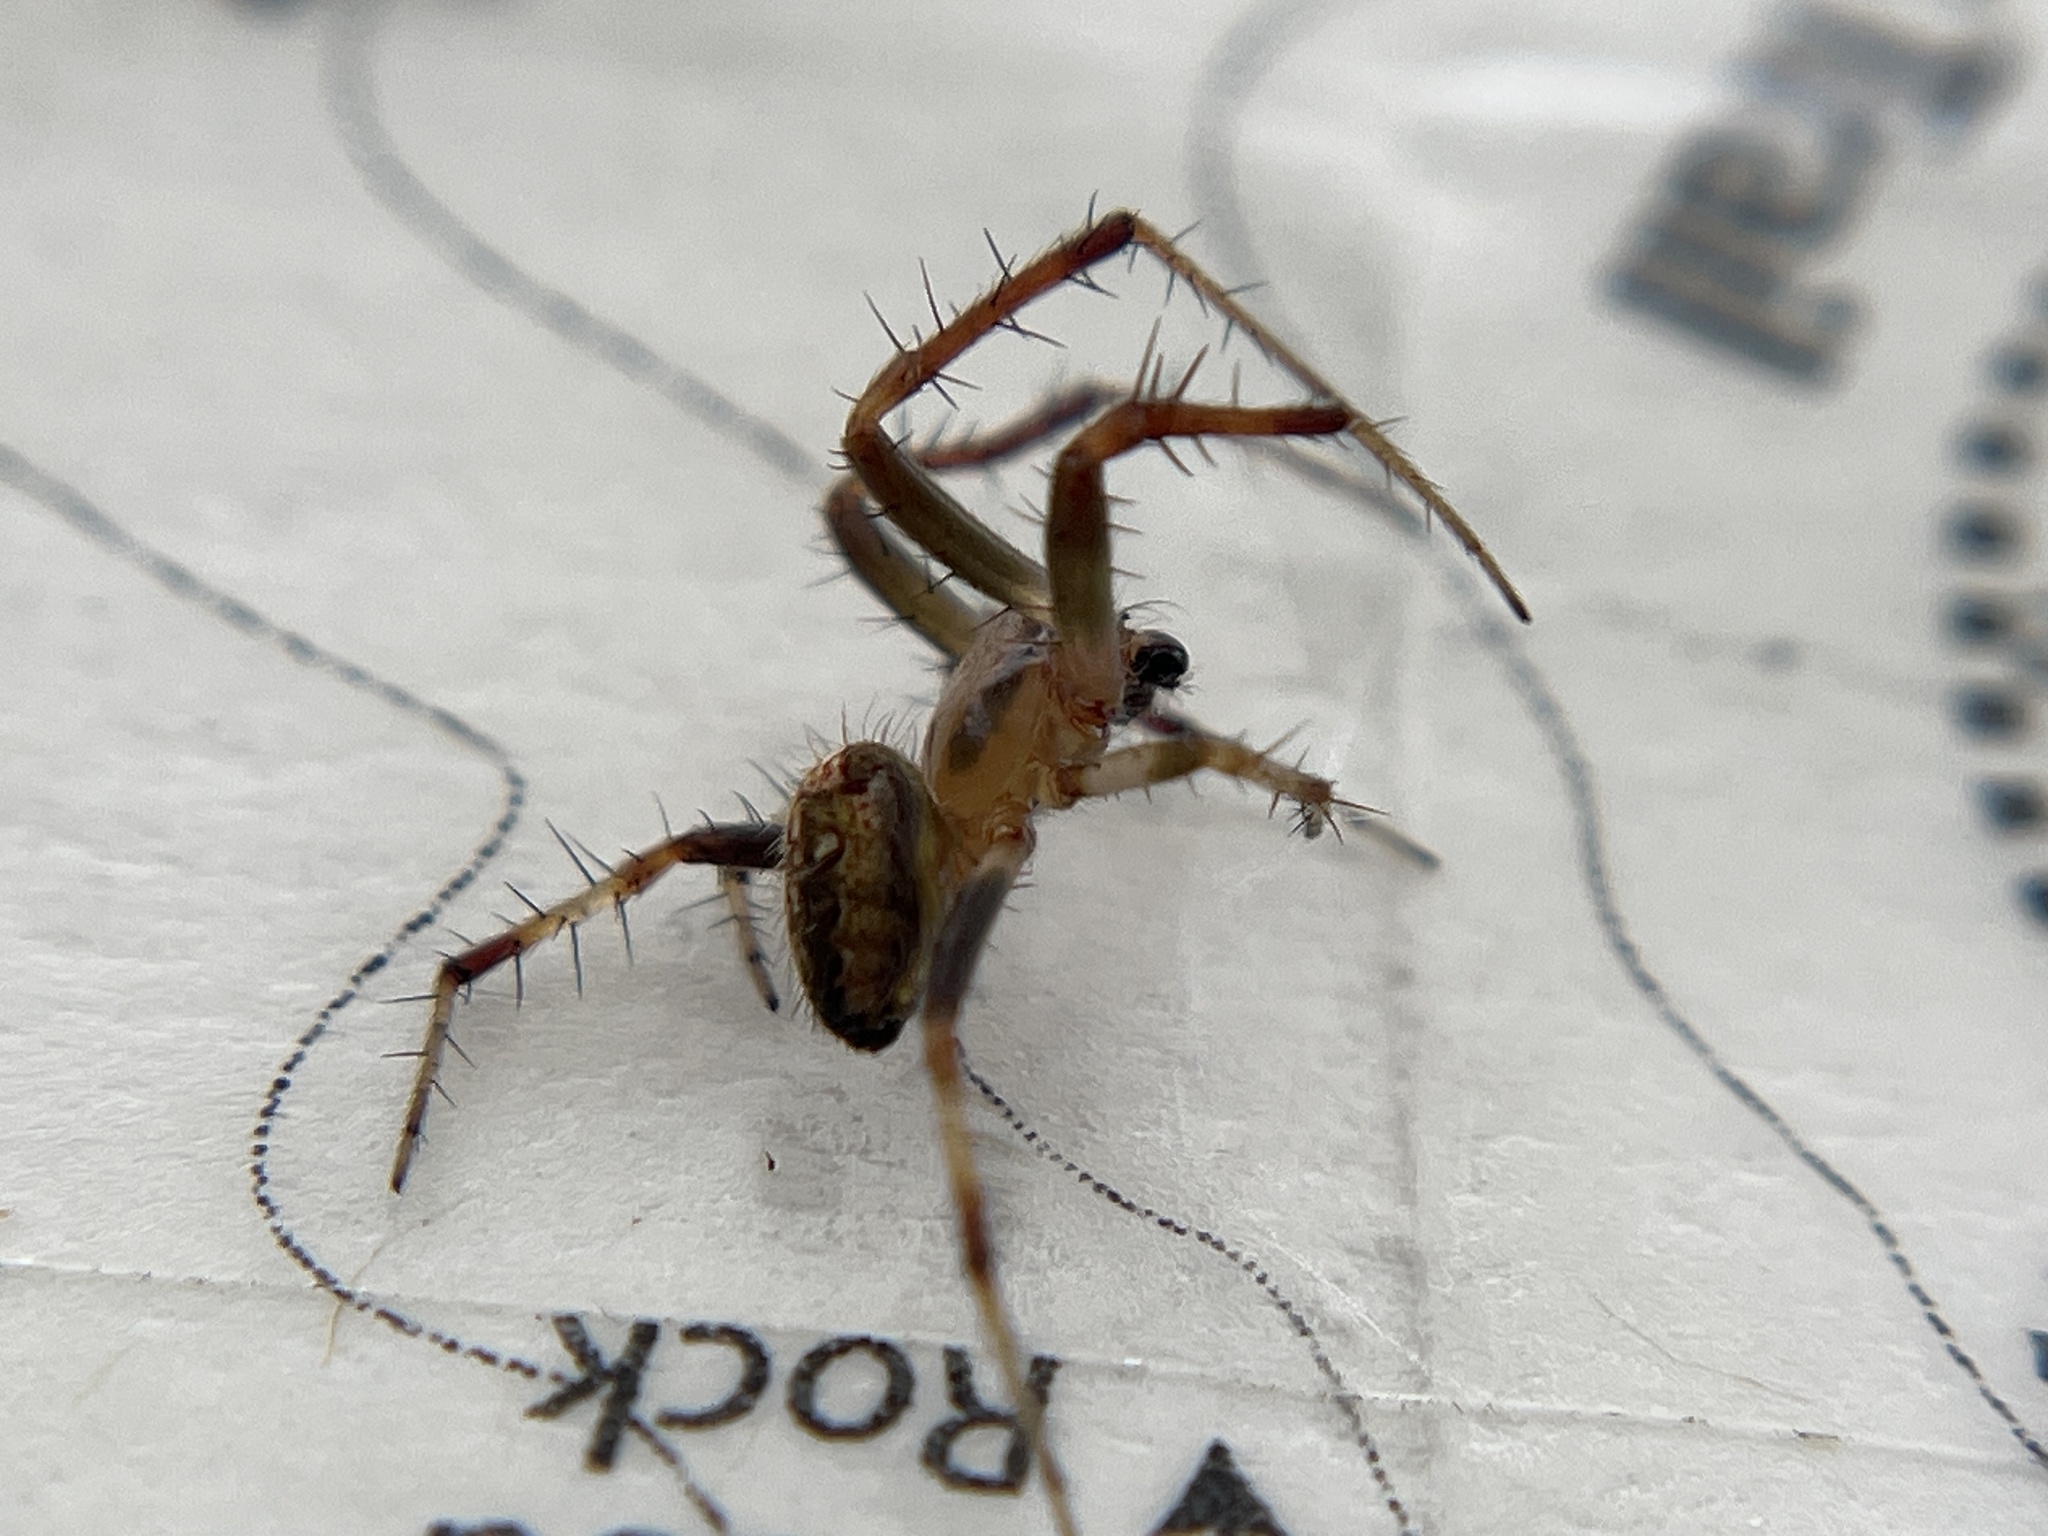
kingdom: Animalia
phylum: Arthropoda
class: Arachnida
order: Araneae
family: Araneidae
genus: Neoscona
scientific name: Neoscona arabesca
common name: Orb weavers
